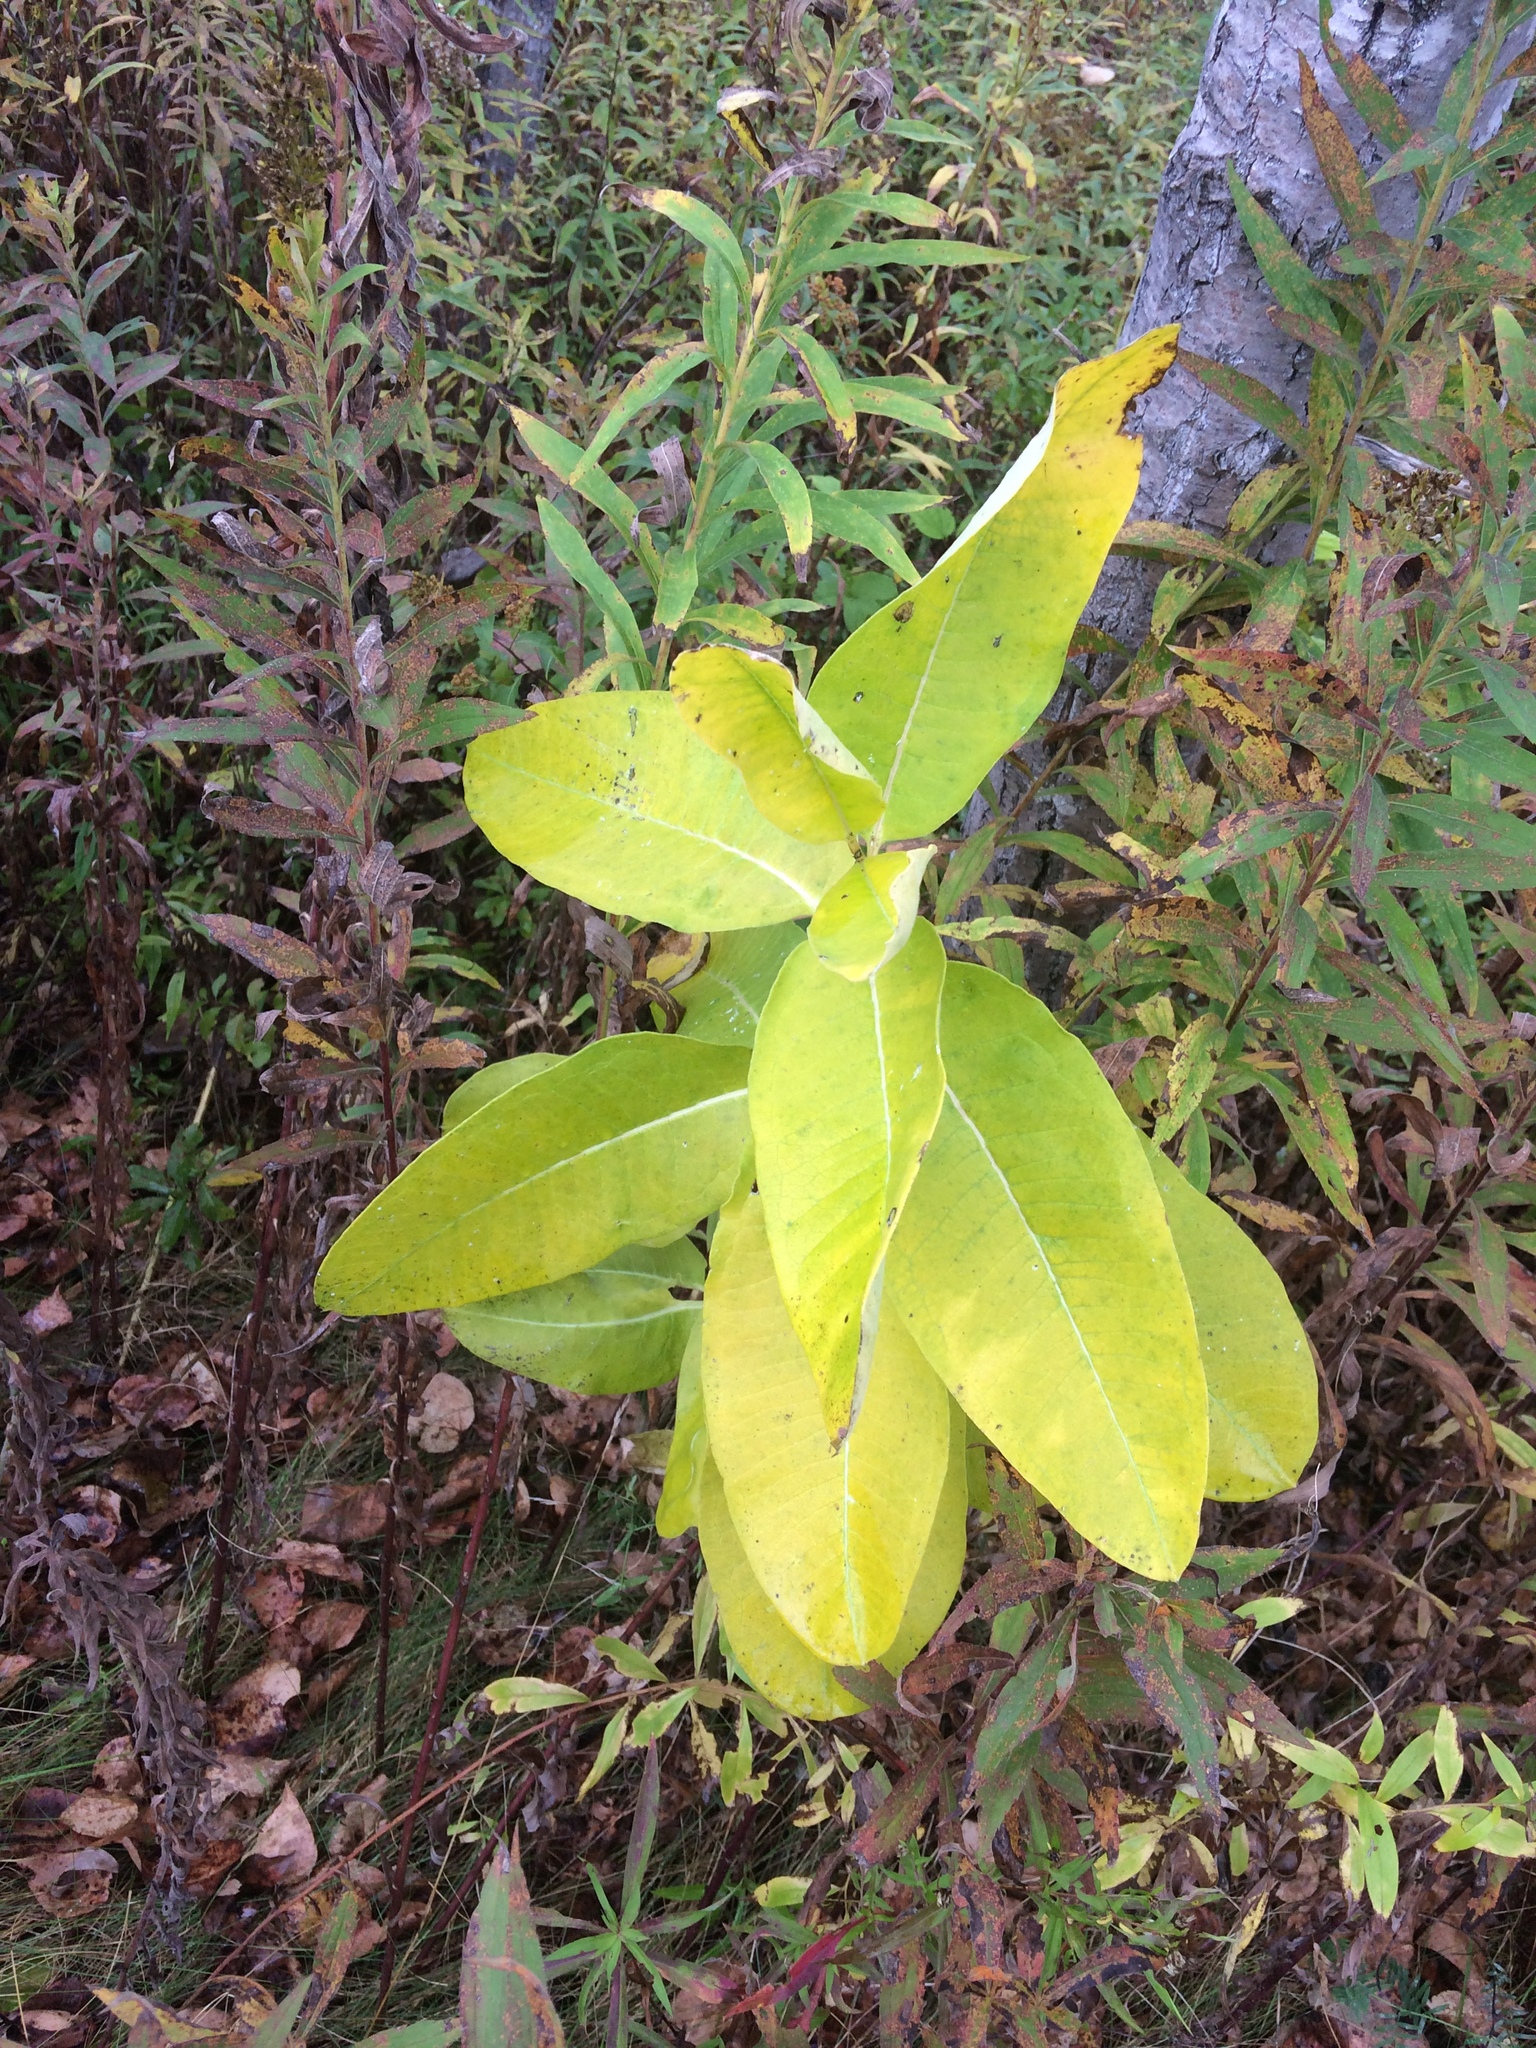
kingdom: Plantae
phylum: Tracheophyta
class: Magnoliopsida
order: Gentianales
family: Apocynaceae
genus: Asclepias
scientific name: Asclepias syriaca
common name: Common milkweed
